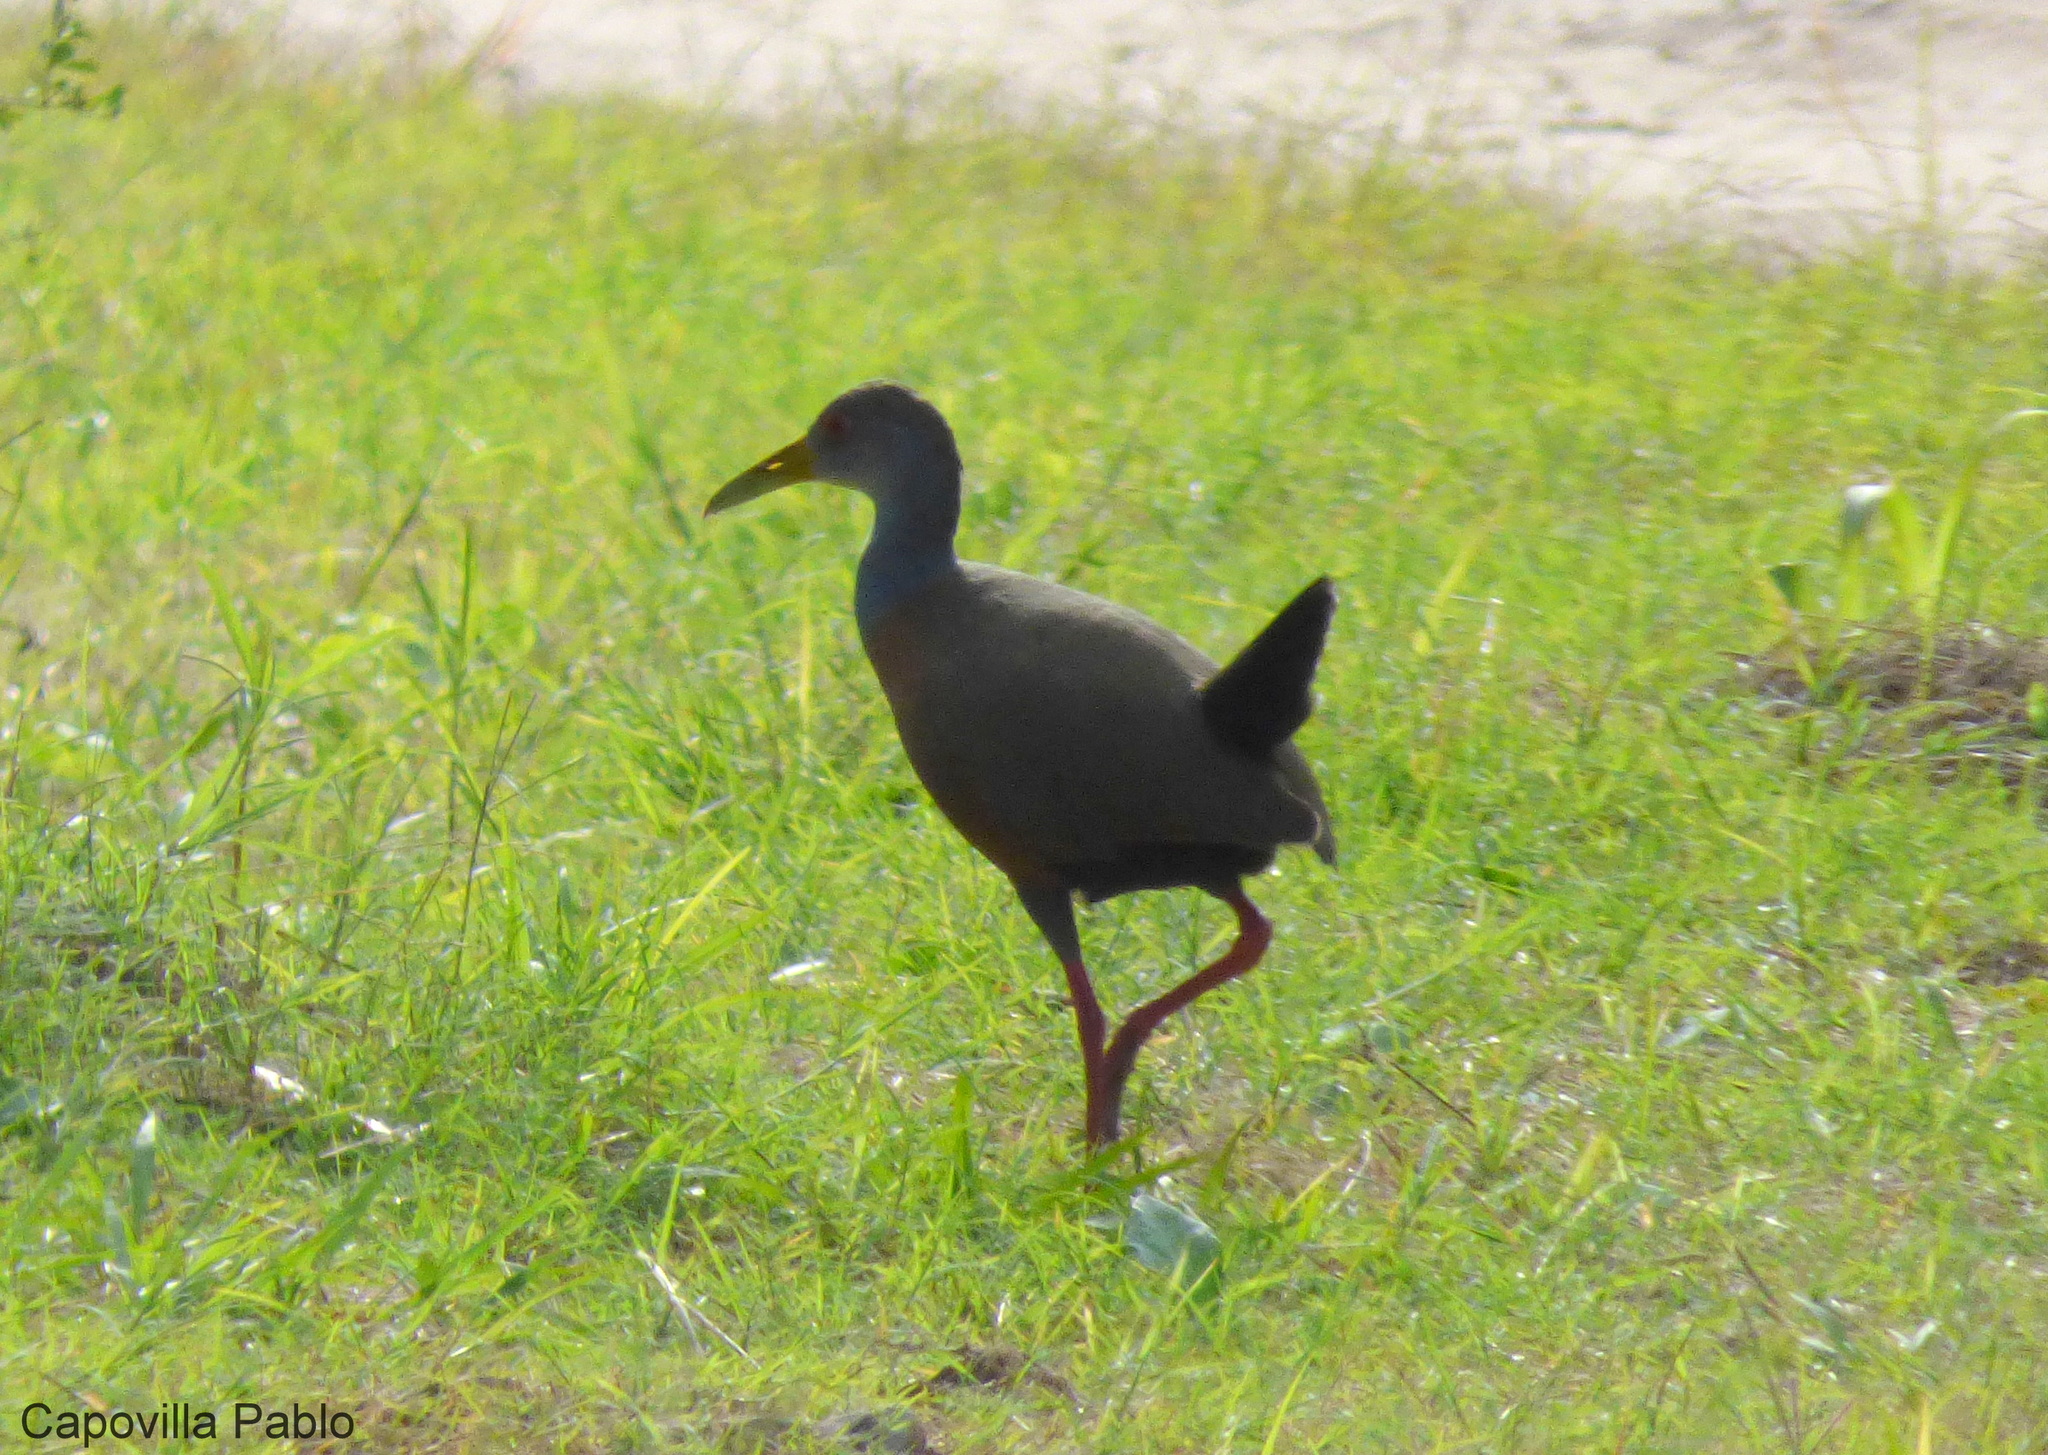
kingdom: Animalia
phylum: Chordata
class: Aves
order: Gruiformes
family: Rallidae
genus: Aramides
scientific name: Aramides cajanea
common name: Gray-necked wood-rail
